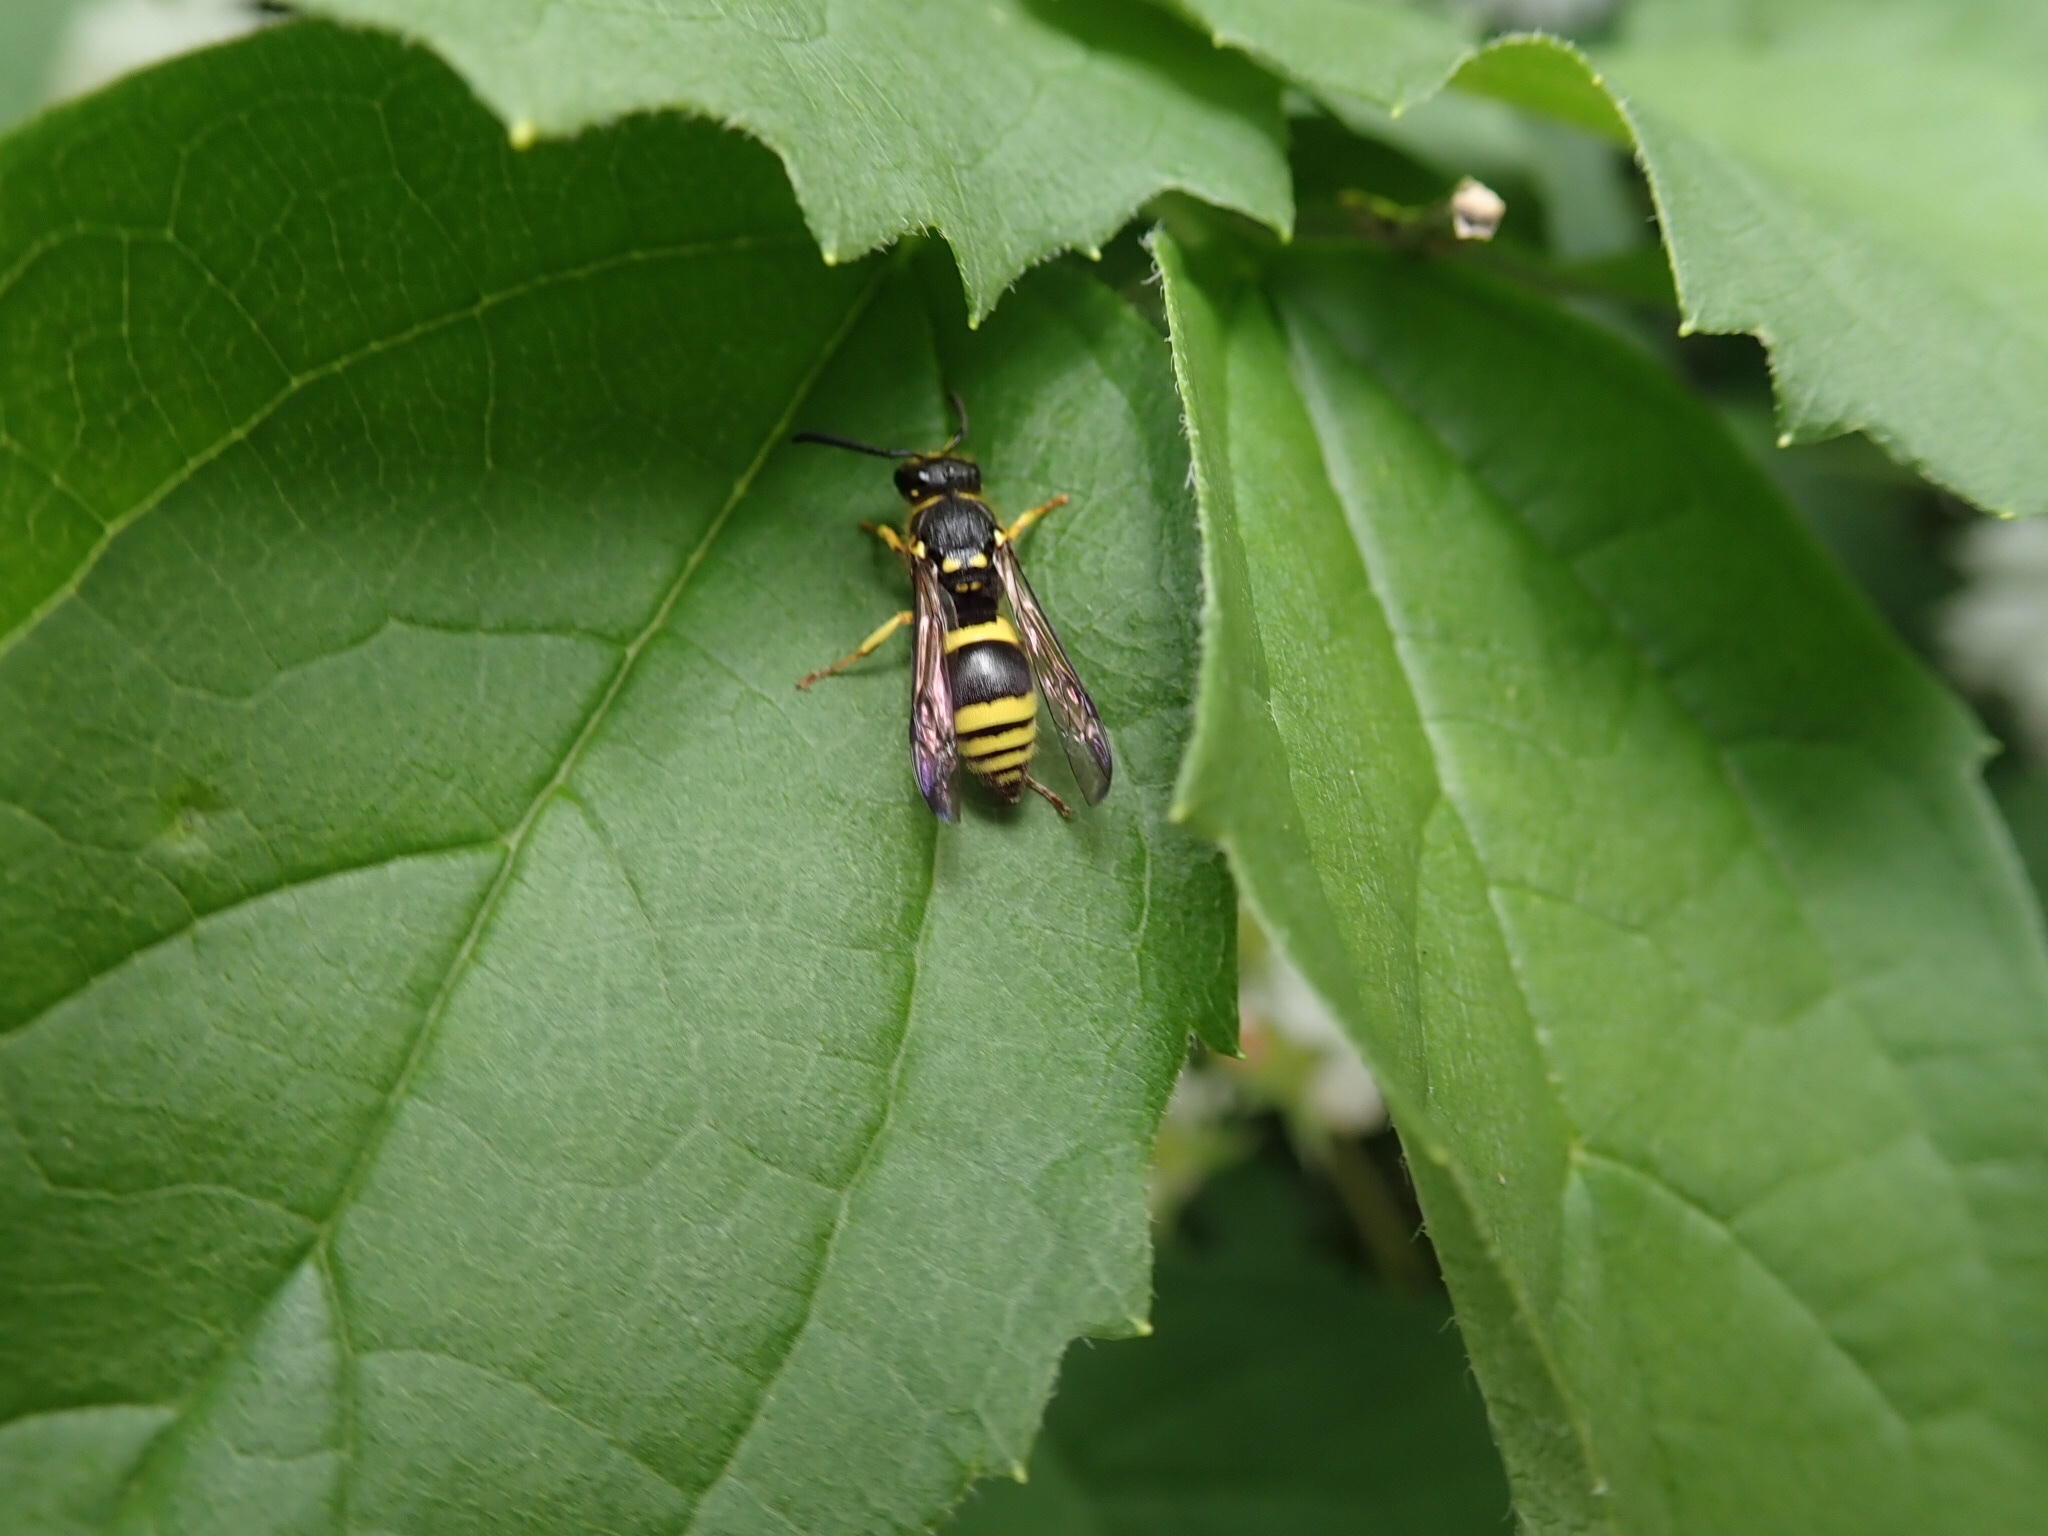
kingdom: Animalia
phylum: Arthropoda
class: Insecta
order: Hymenoptera
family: Vespidae
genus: Ancistrocerus
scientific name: Ancistrocerus gazella
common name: European tube wasp
